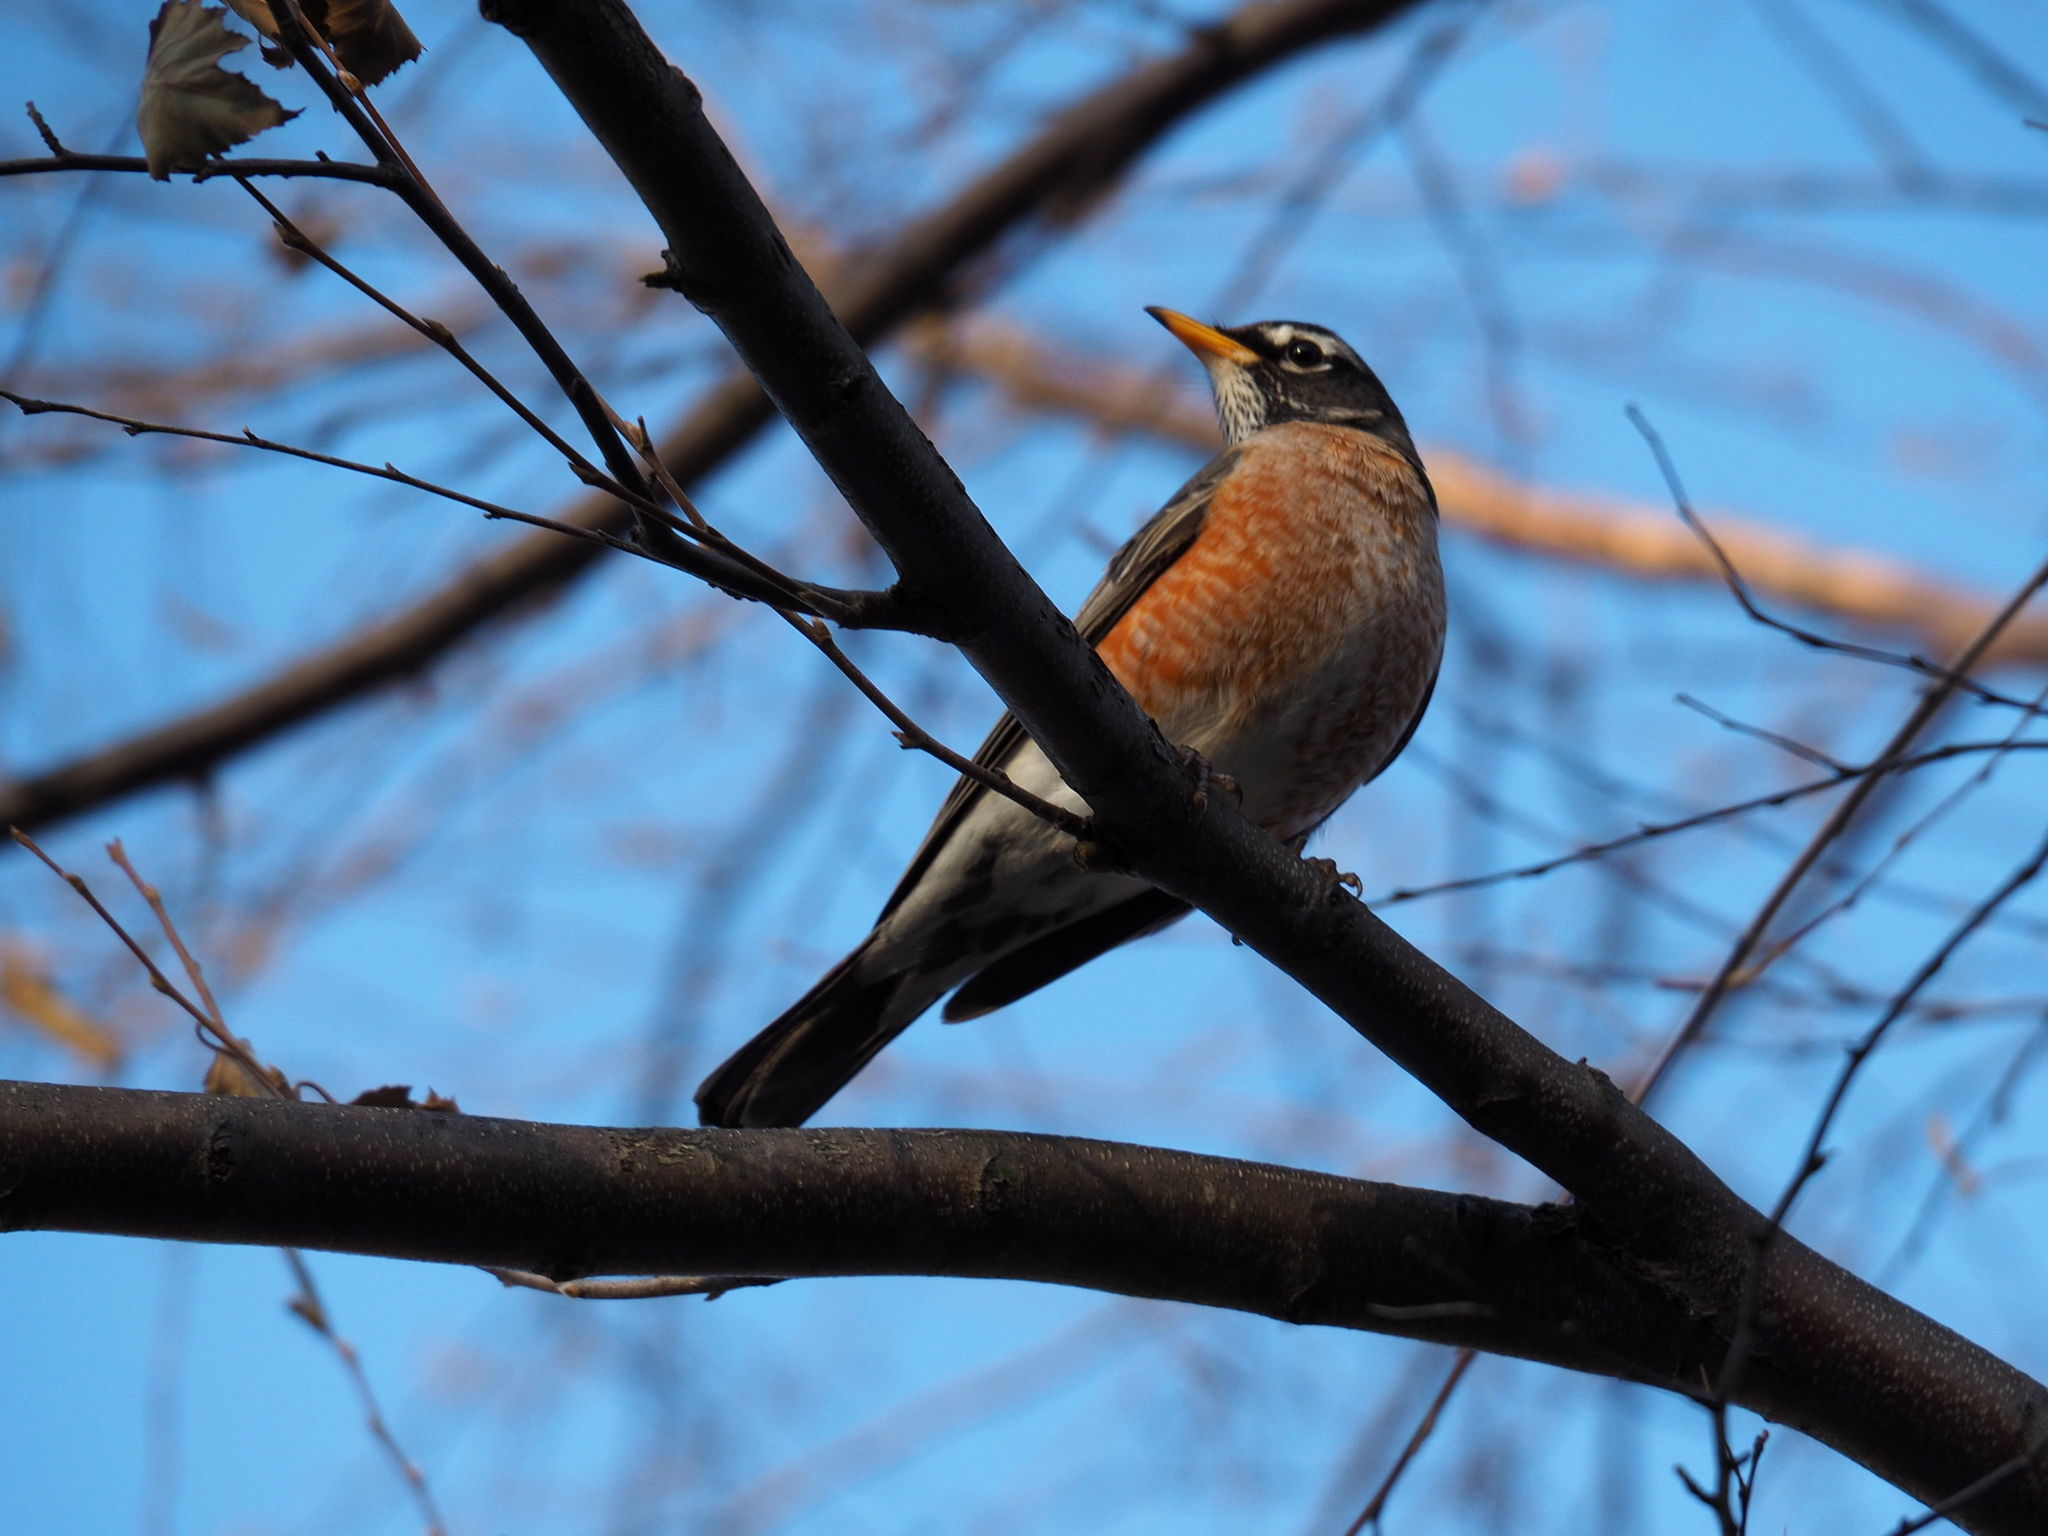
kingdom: Animalia
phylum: Chordata
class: Aves
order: Passeriformes
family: Turdidae
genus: Turdus
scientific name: Turdus migratorius
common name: American robin
